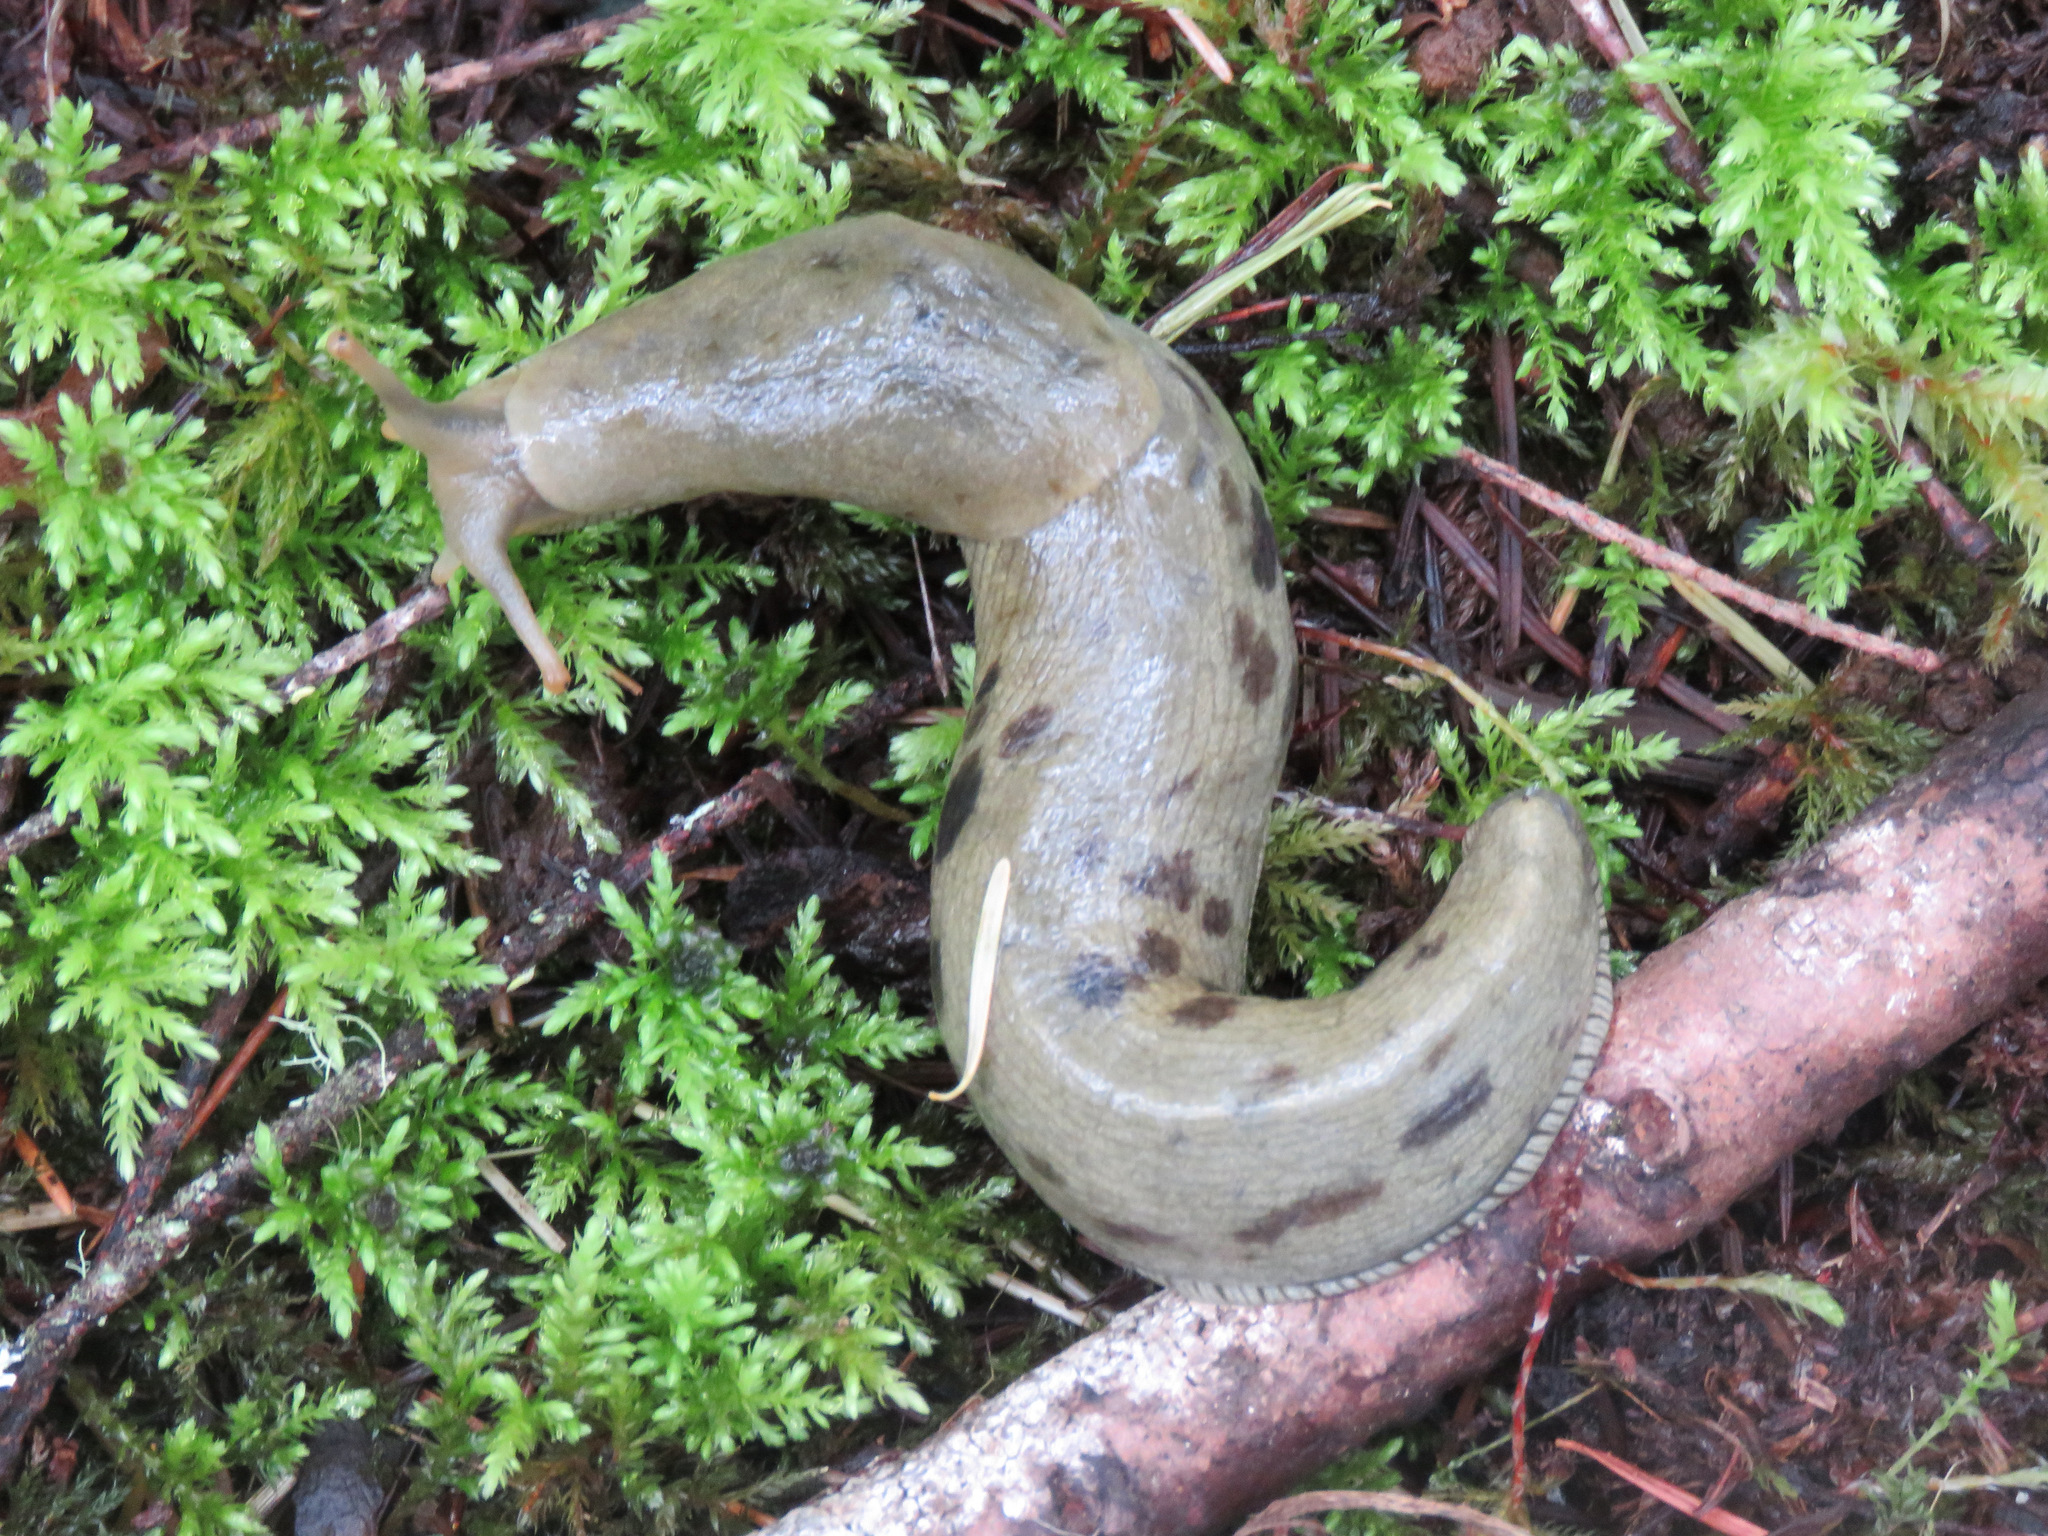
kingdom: Animalia
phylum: Mollusca
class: Gastropoda
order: Stylommatophora
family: Ariolimacidae
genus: Ariolimax
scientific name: Ariolimax columbianus
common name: Pacific banana slug
